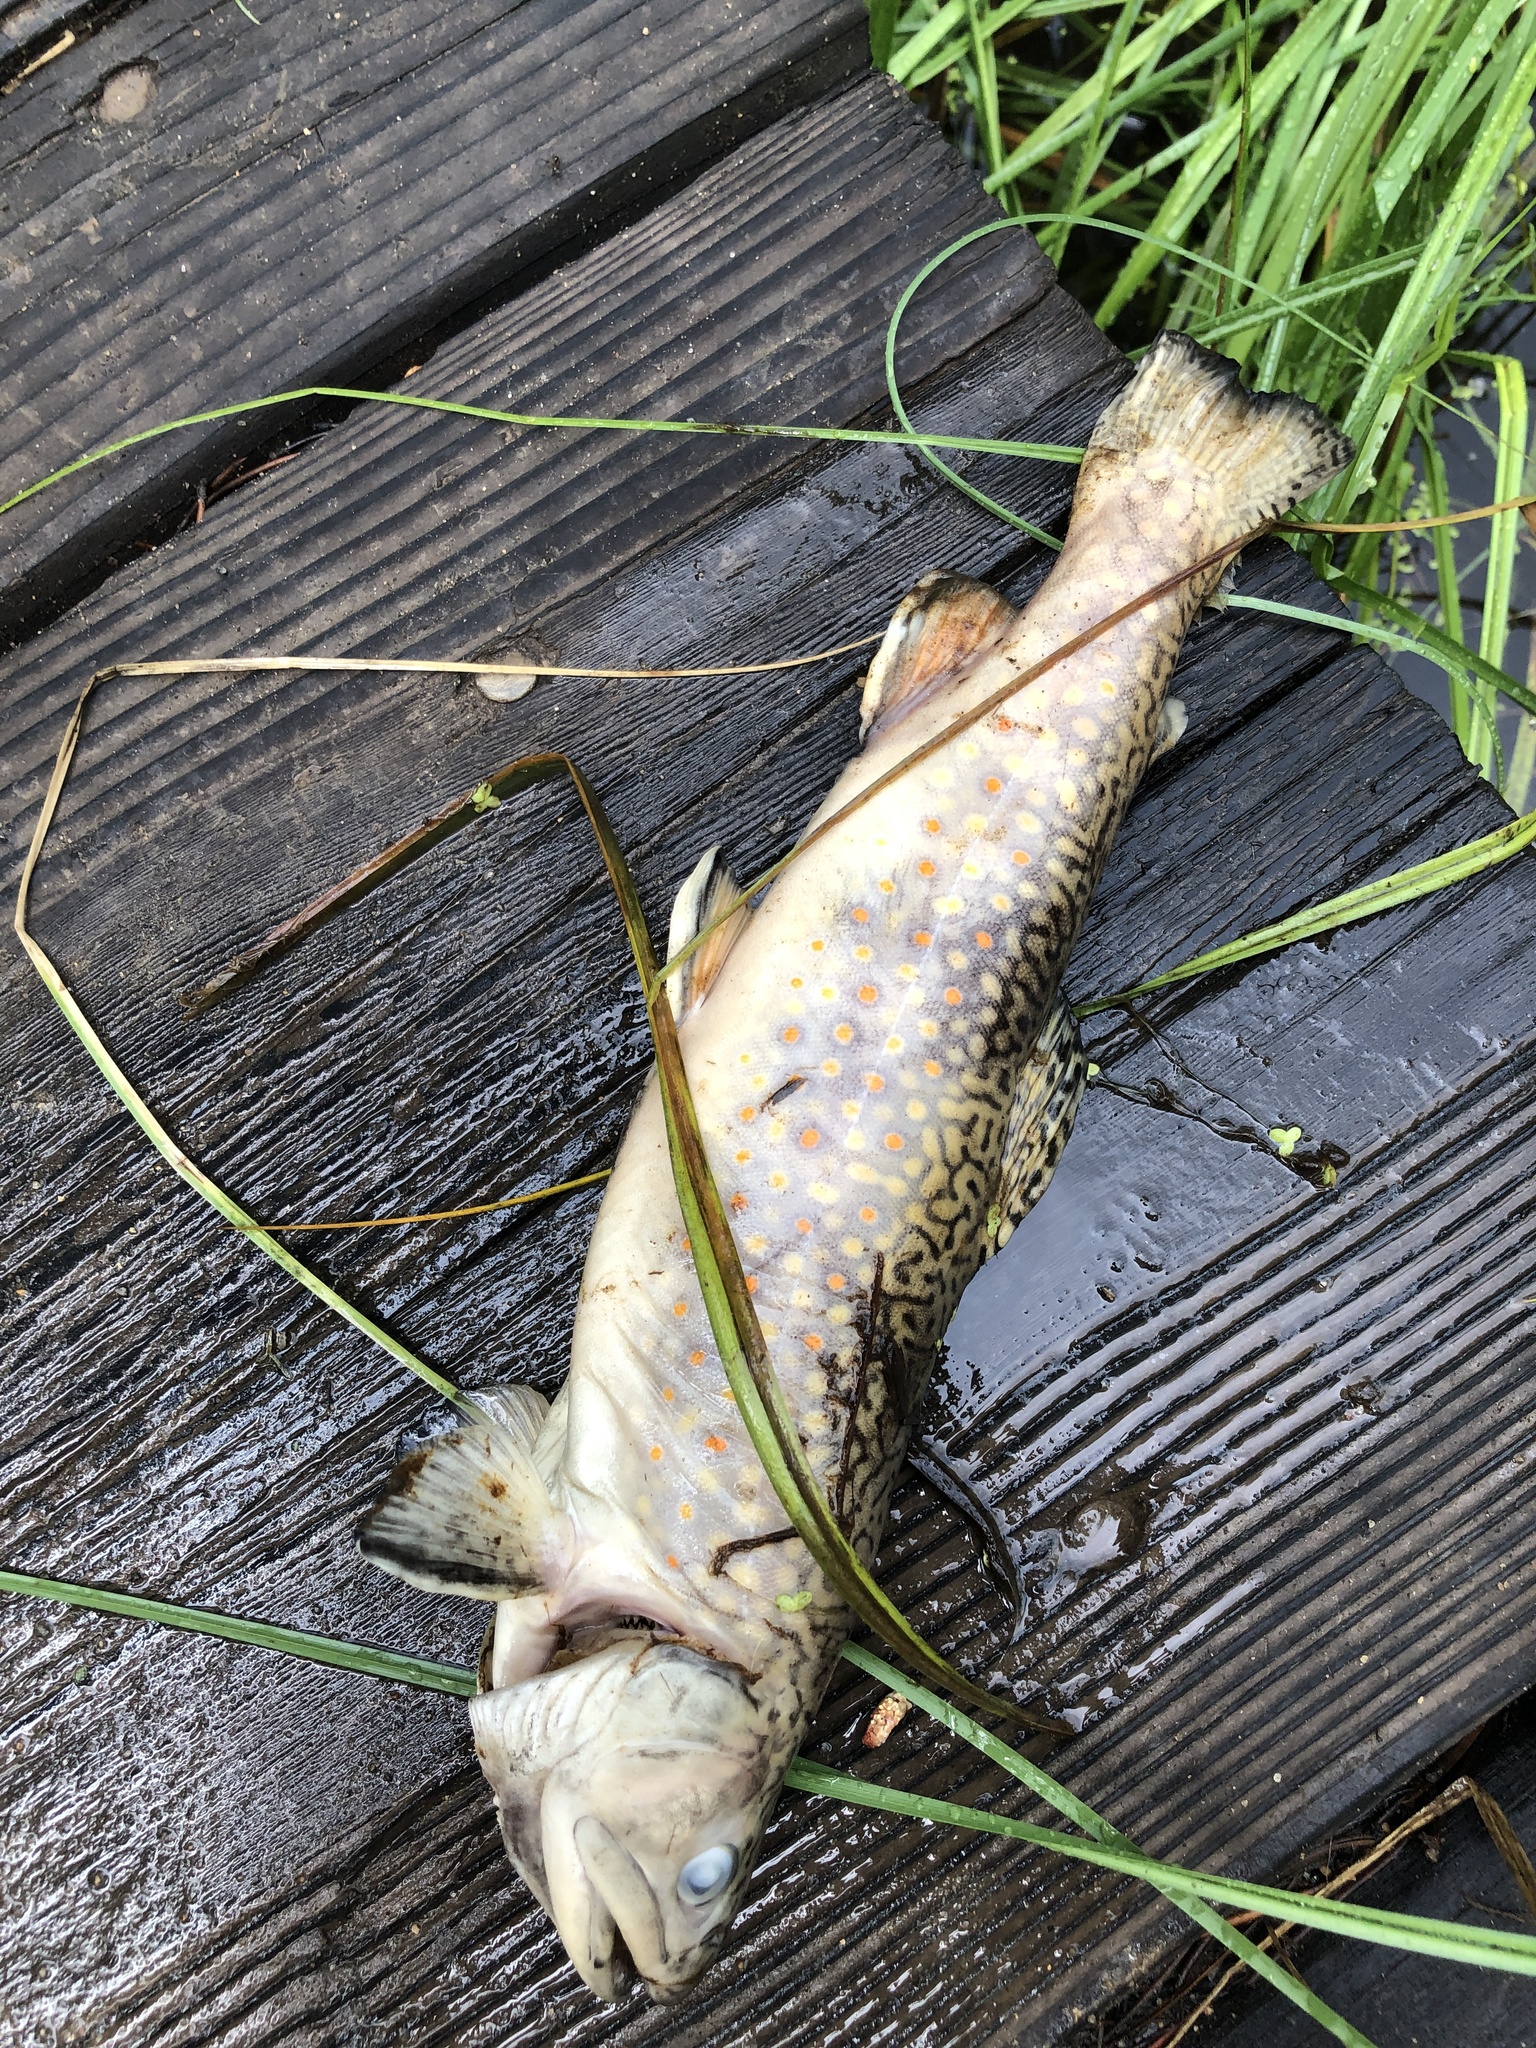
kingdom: Animalia
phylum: Chordata
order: Salmoniformes
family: Salmonidae
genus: Salvelinus
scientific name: Salvelinus fontinalis
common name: Brook trout
